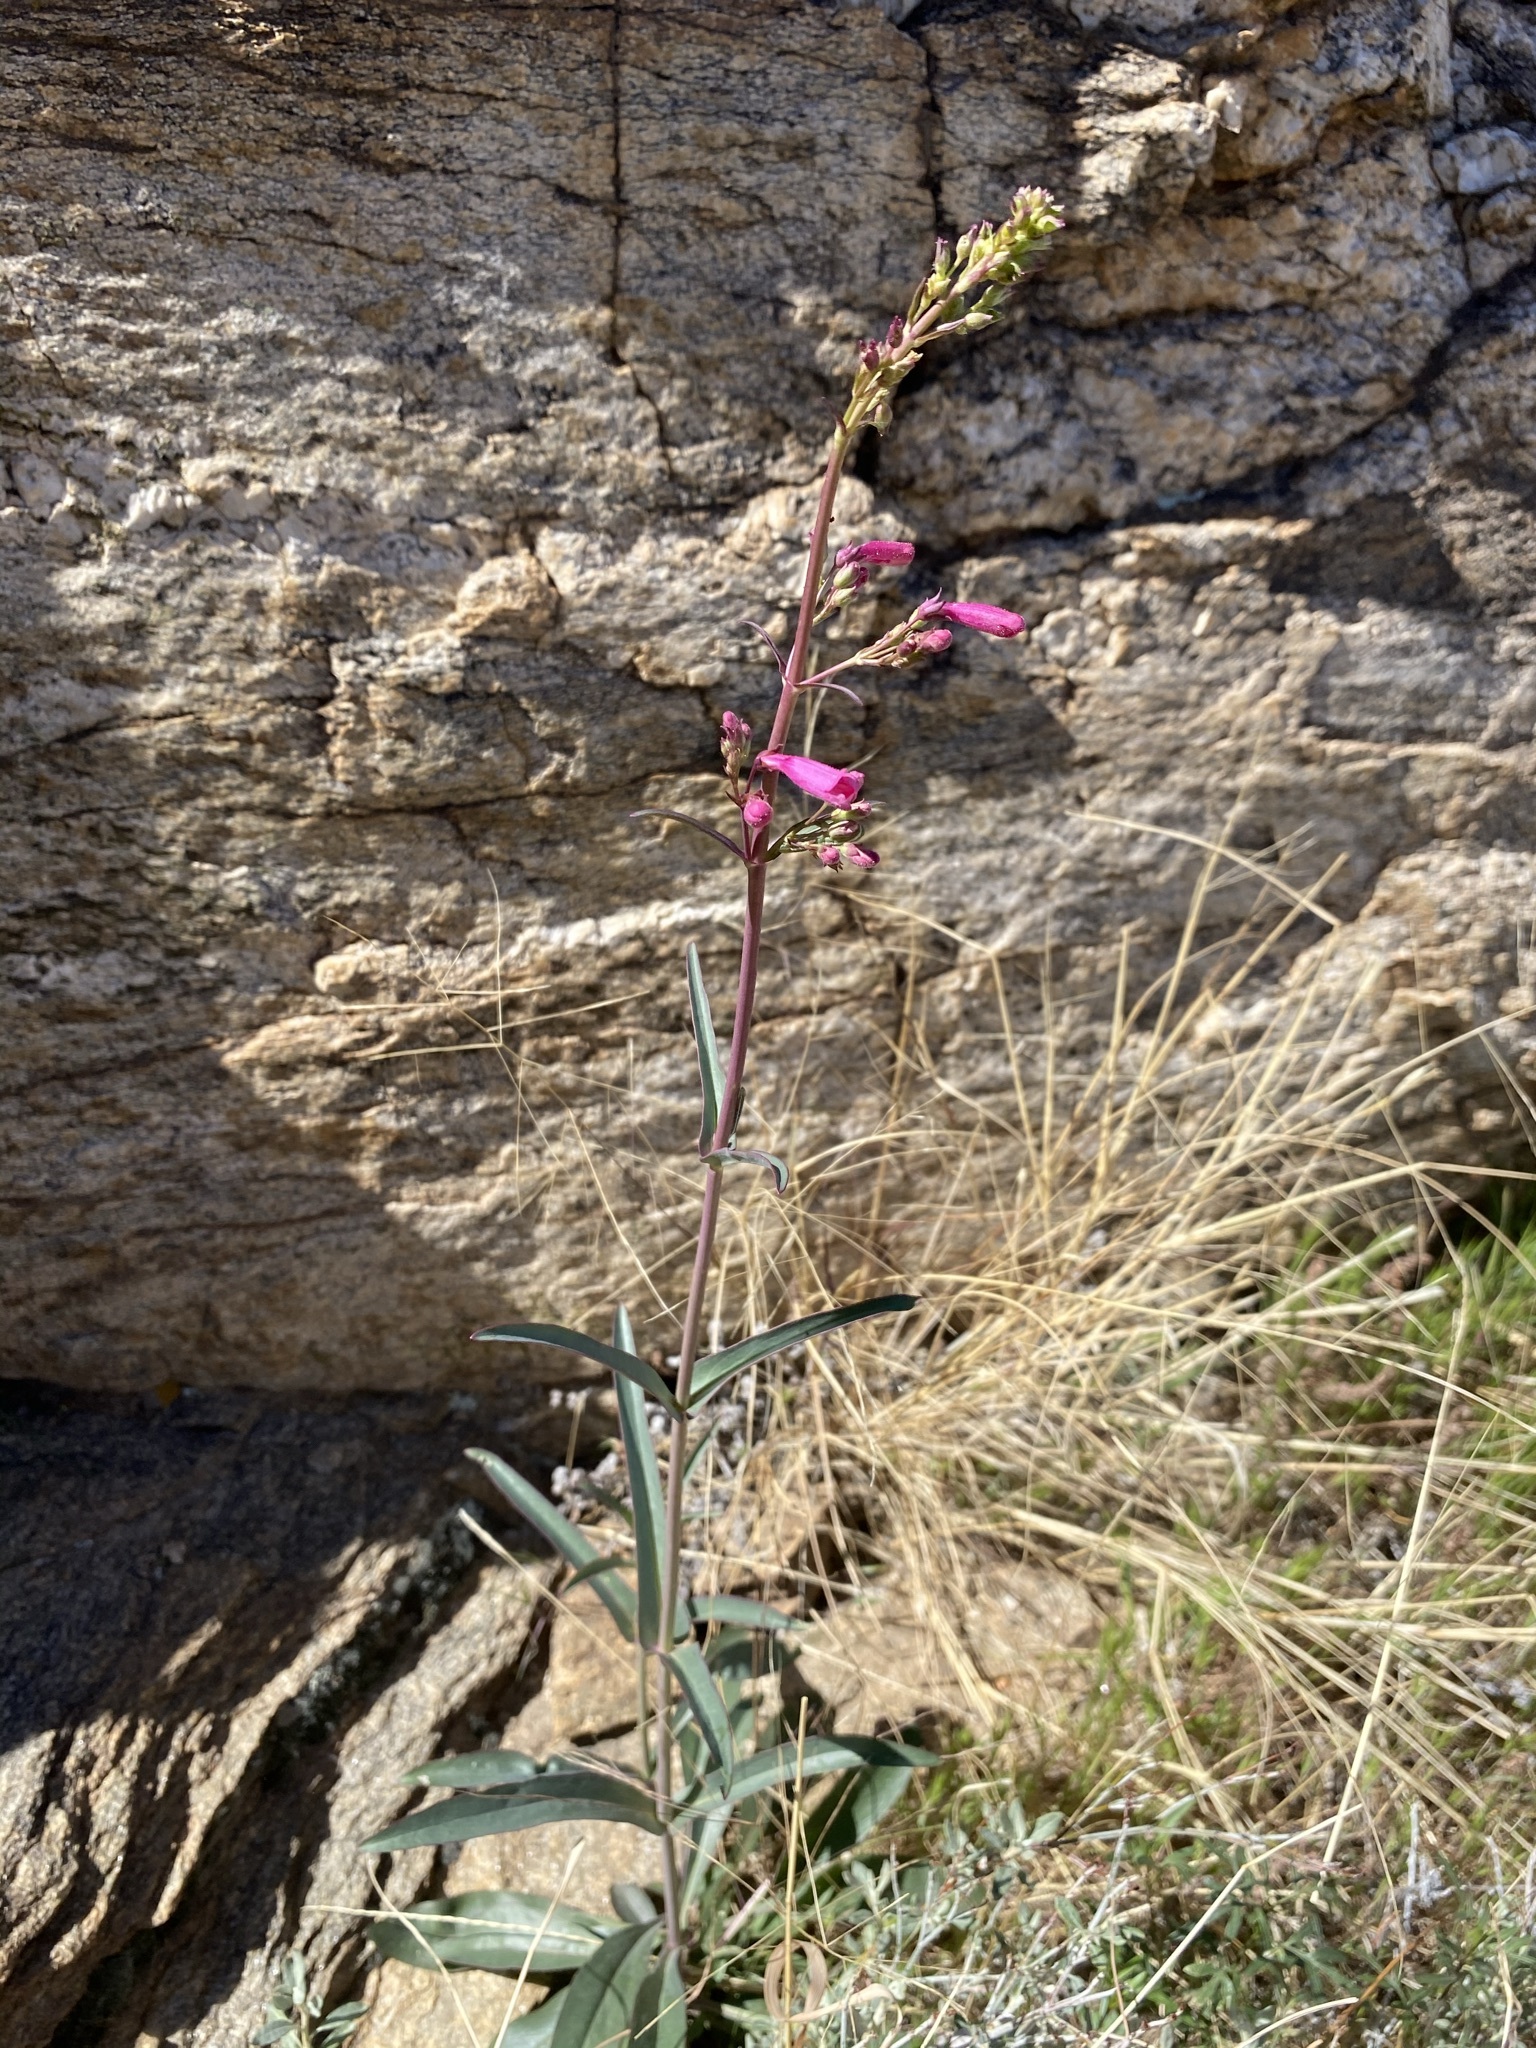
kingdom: Plantae
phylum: Tracheophyta
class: Magnoliopsida
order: Lamiales
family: Plantaginaceae
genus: Penstemon
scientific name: Penstemon parryi
